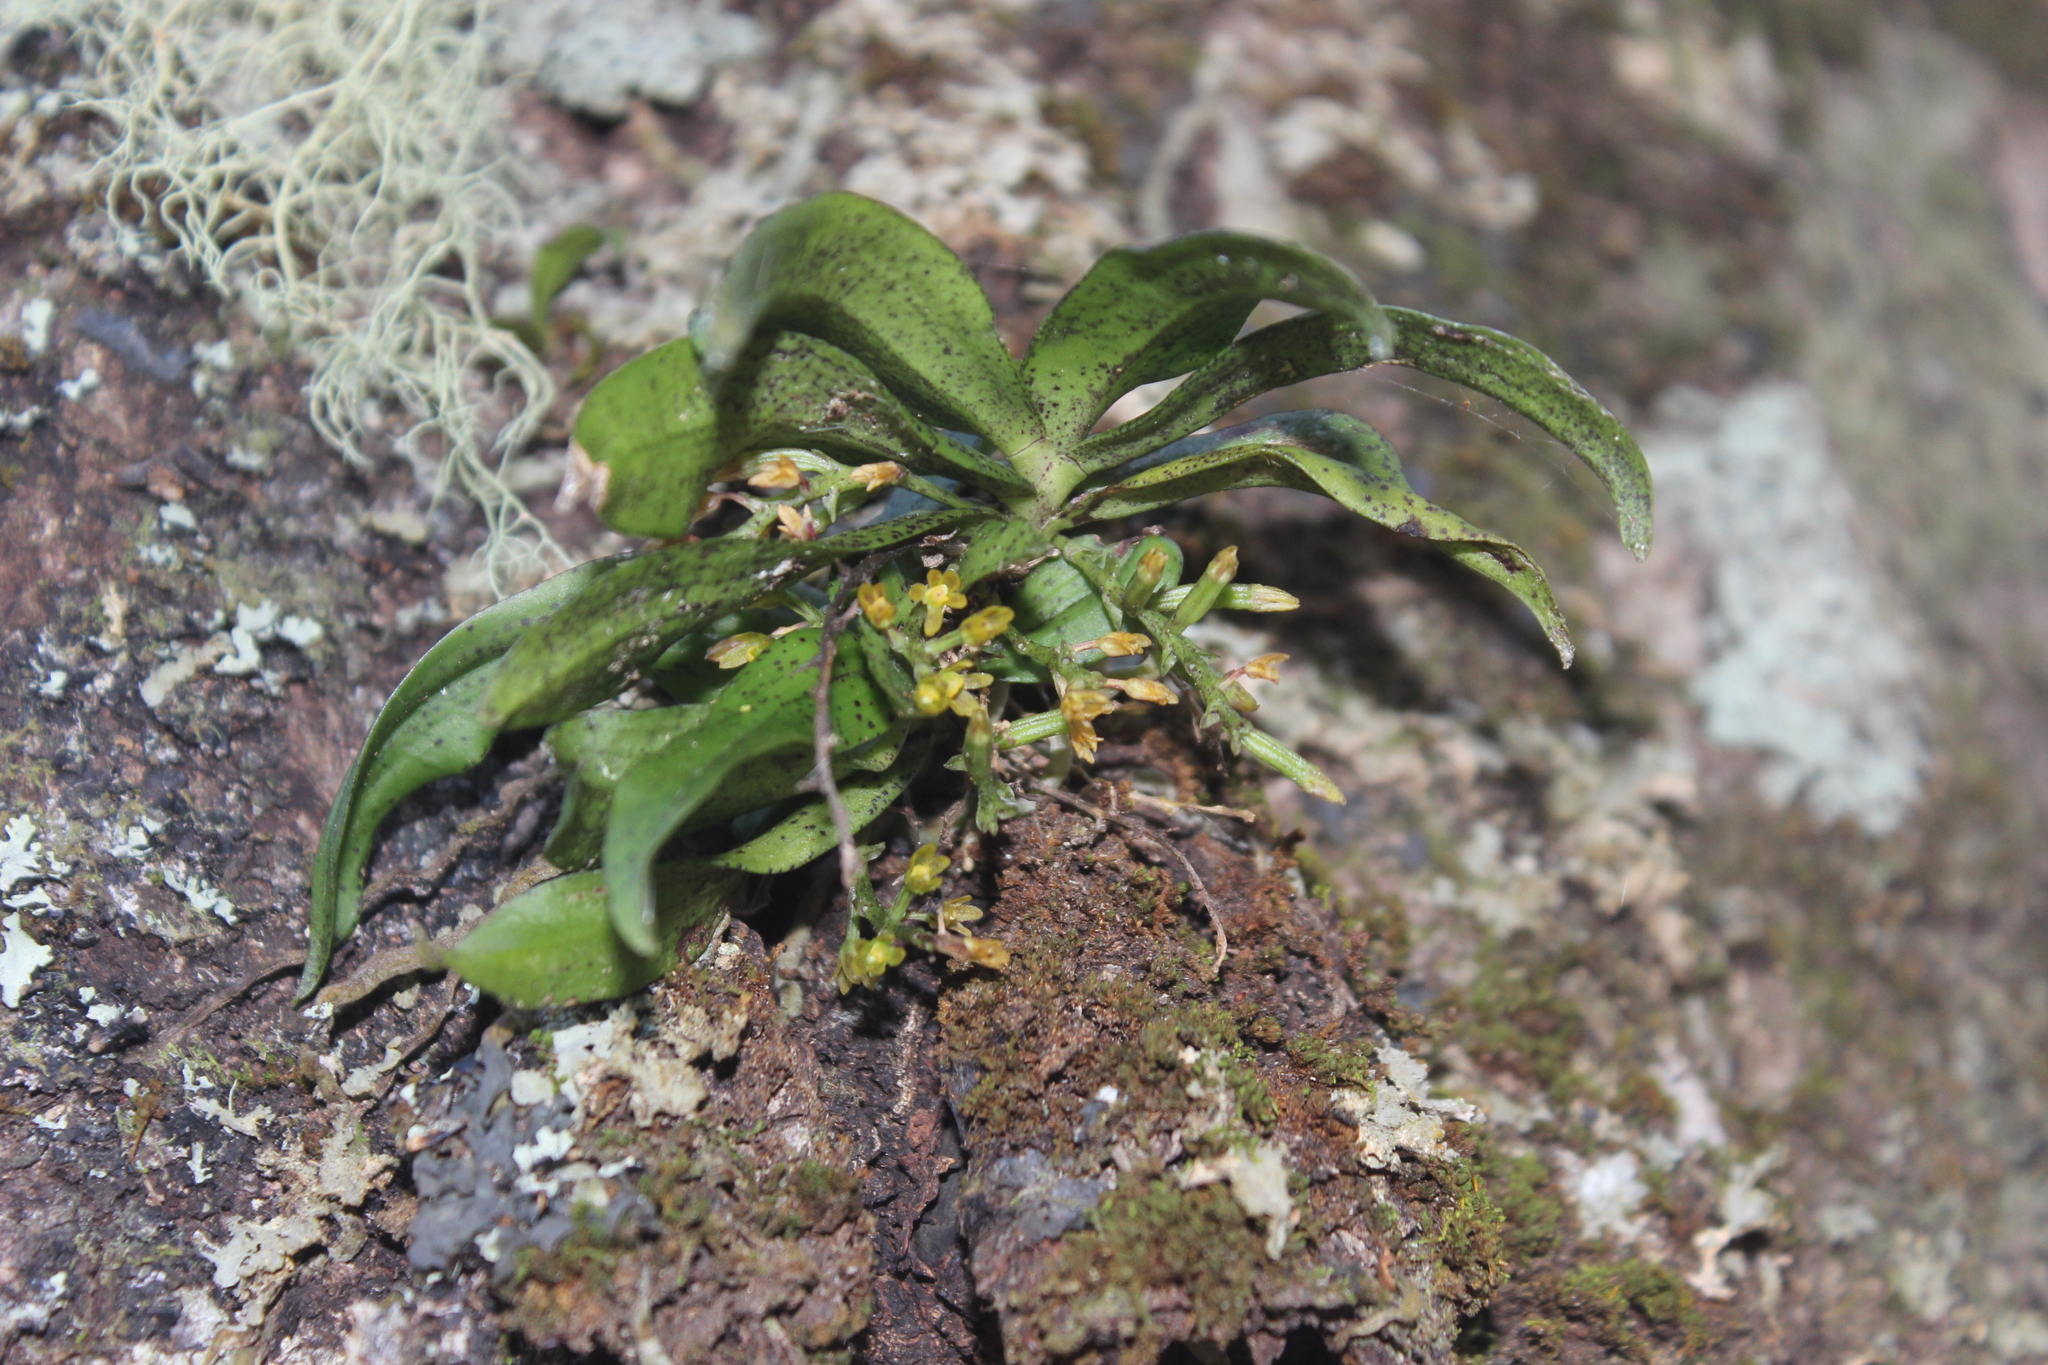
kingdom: Plantae
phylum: Tracheophyta
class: Liliopsida
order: Asparagales
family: Orchidaceae
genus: Drymoanthus
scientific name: Drymoanthus flavus
